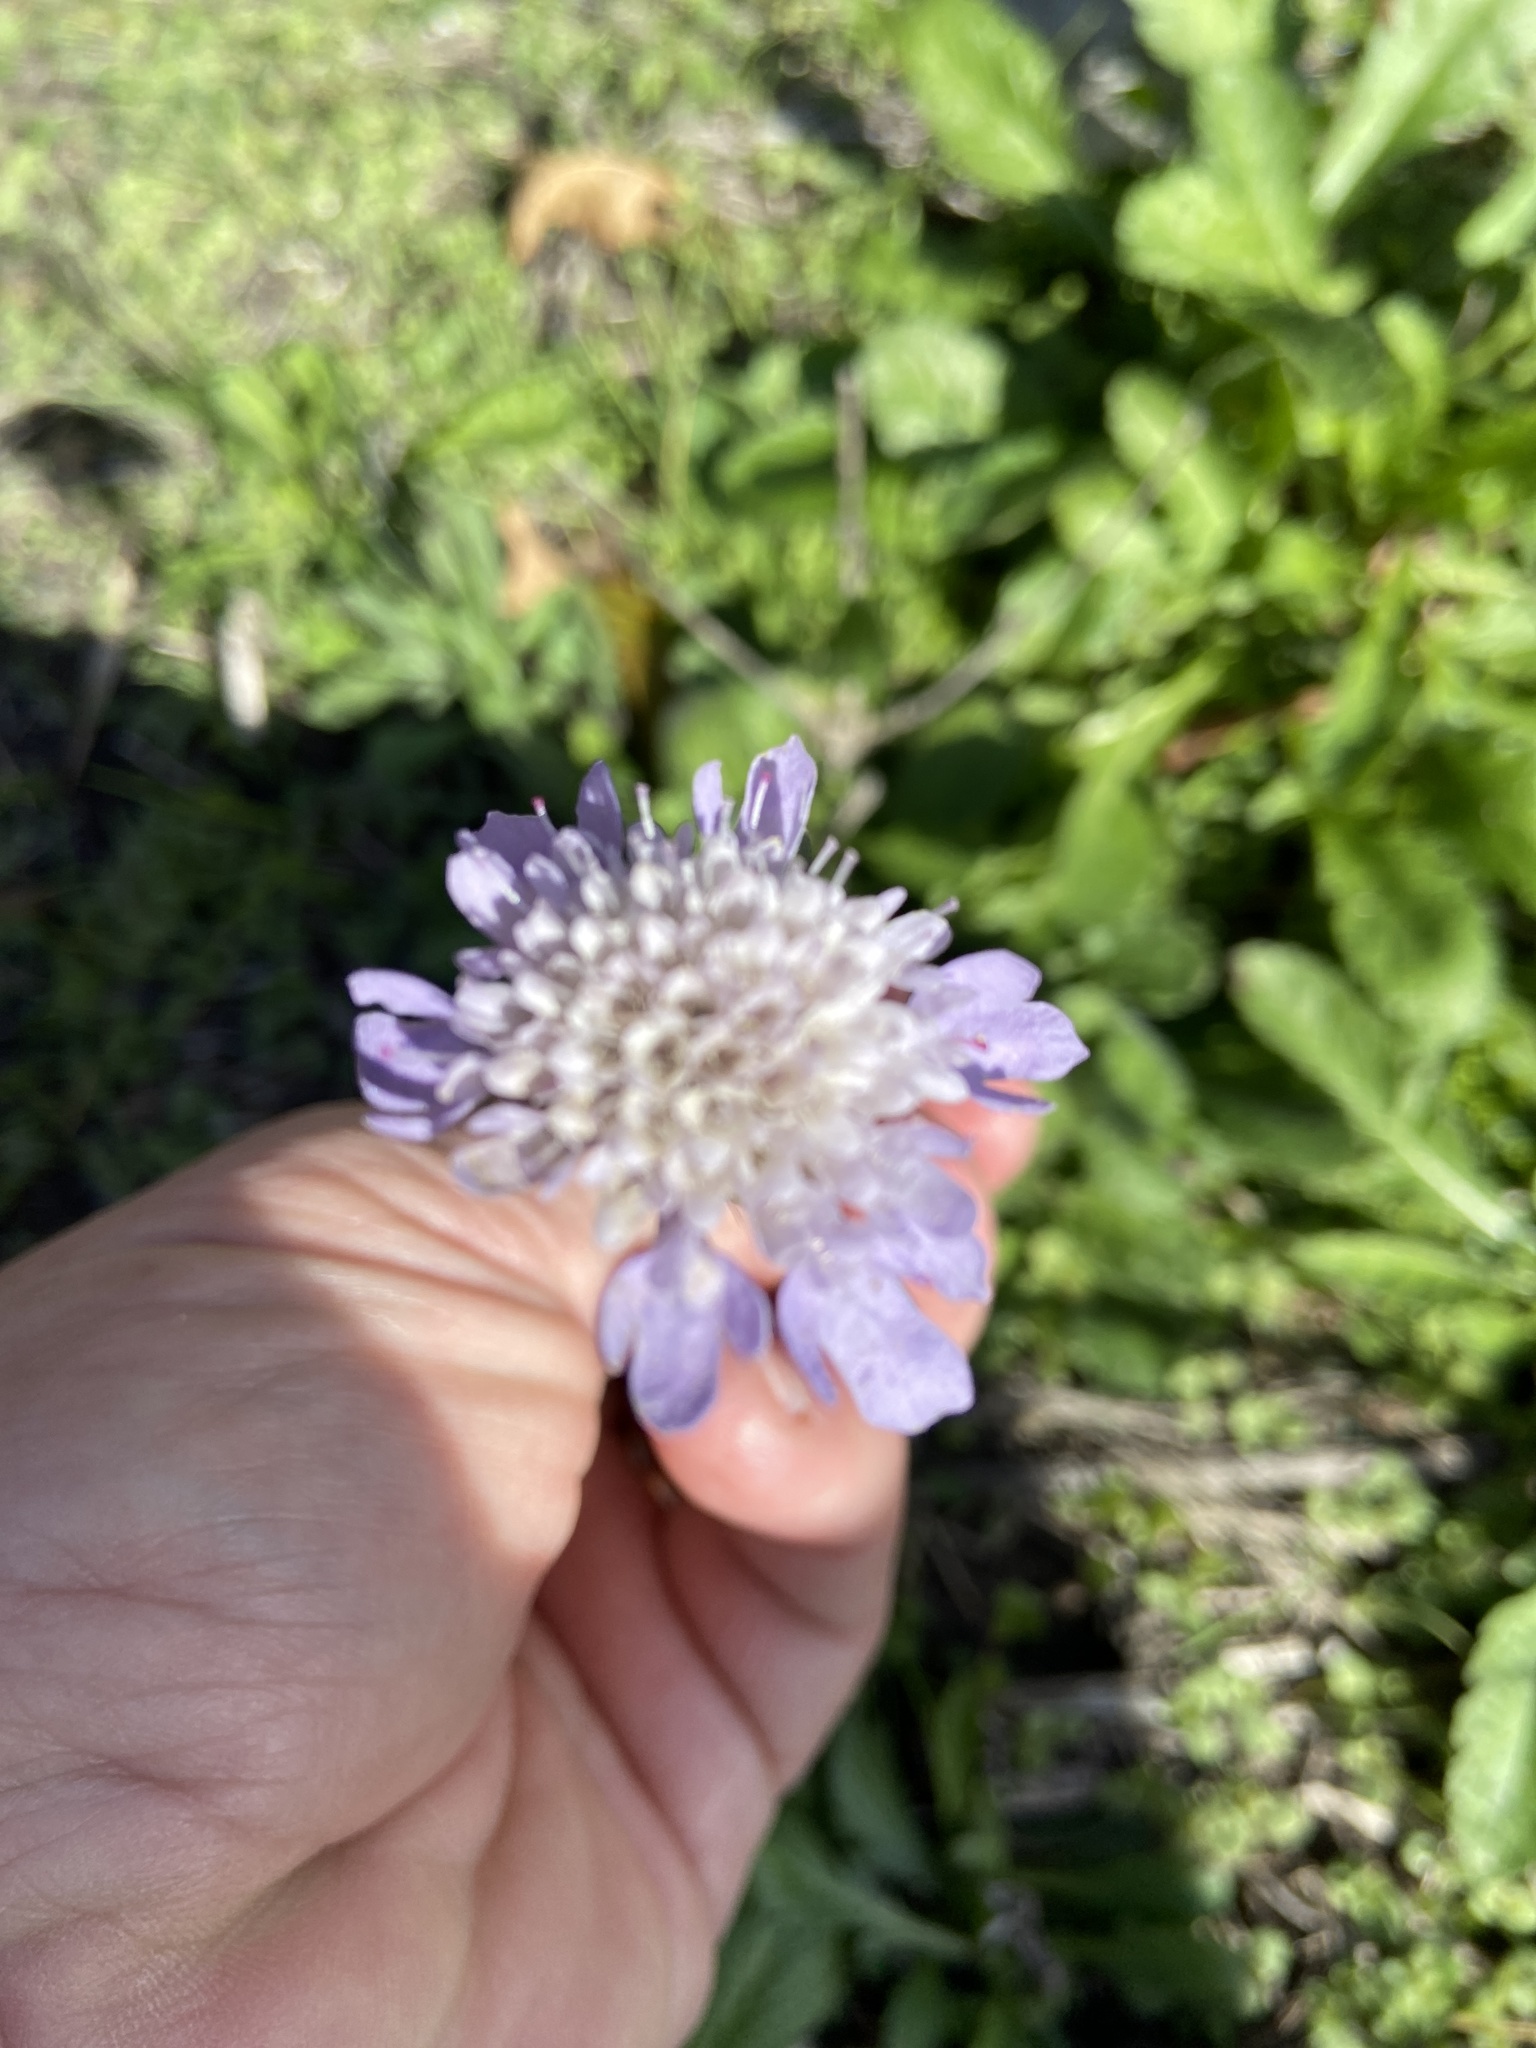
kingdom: Plantae
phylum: Tracheophyta
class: Magnoliopsida
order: Dipsacales
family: Caprifoliaceae
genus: Sixalix
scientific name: Sixalix atropurpurea
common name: Sweet scabious
